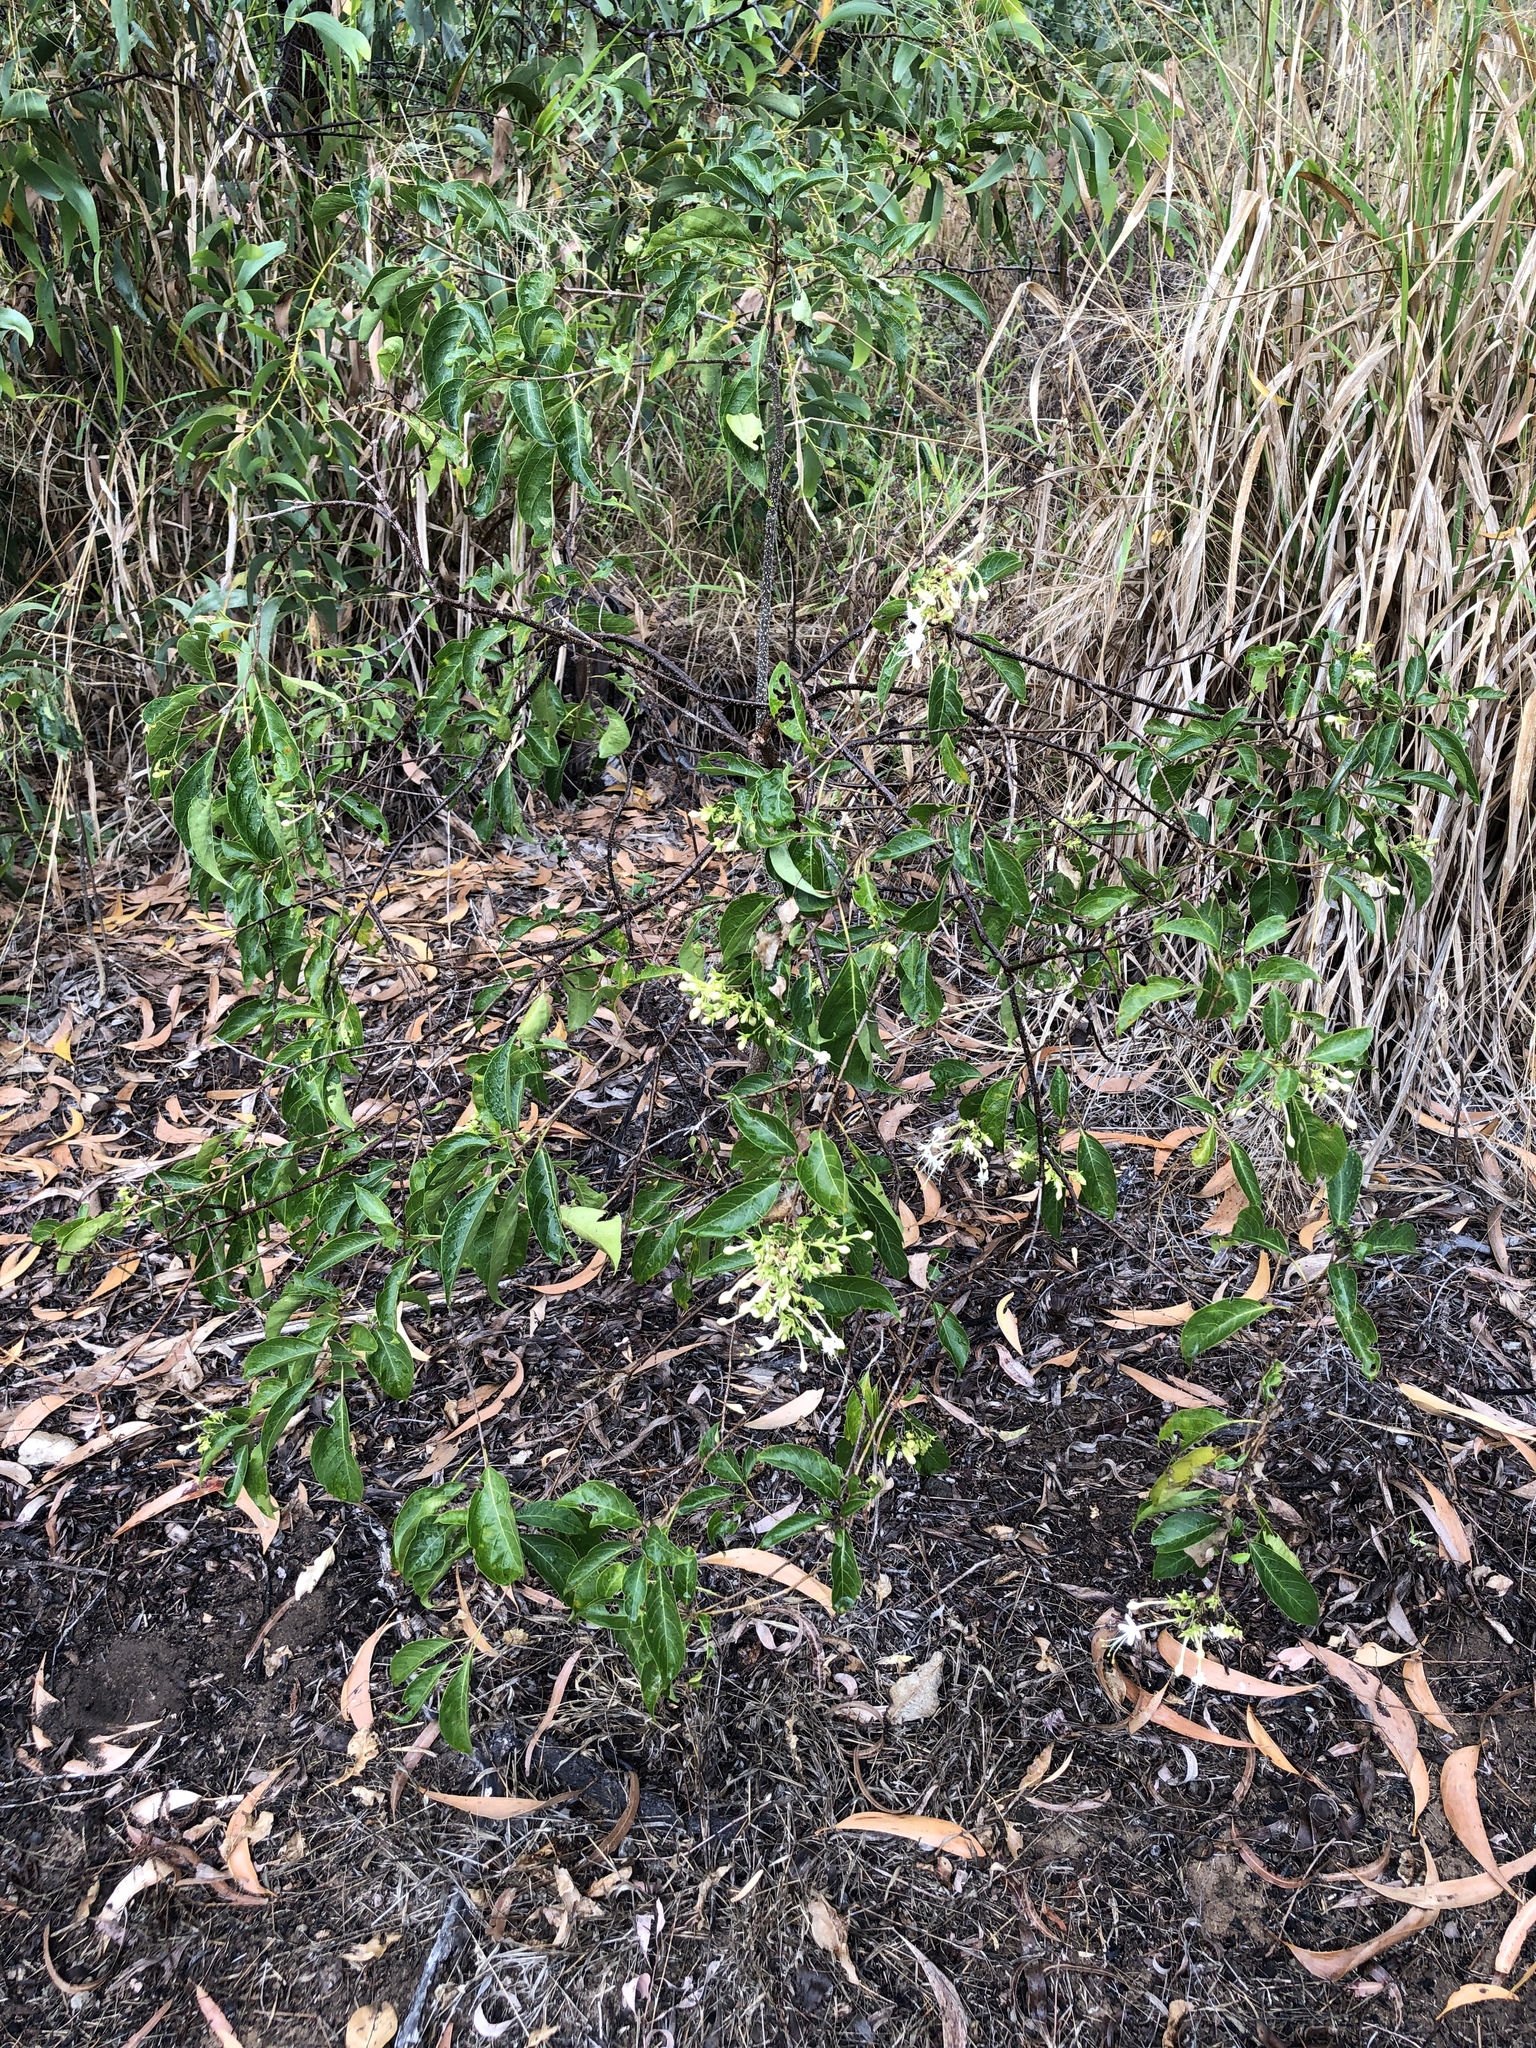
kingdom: Plantae
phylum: Tracheophyta
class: Magnoliopsida
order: Lamiales
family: Lamiaceae
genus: Clerodendrum
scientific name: Clerodendrum floribundum
